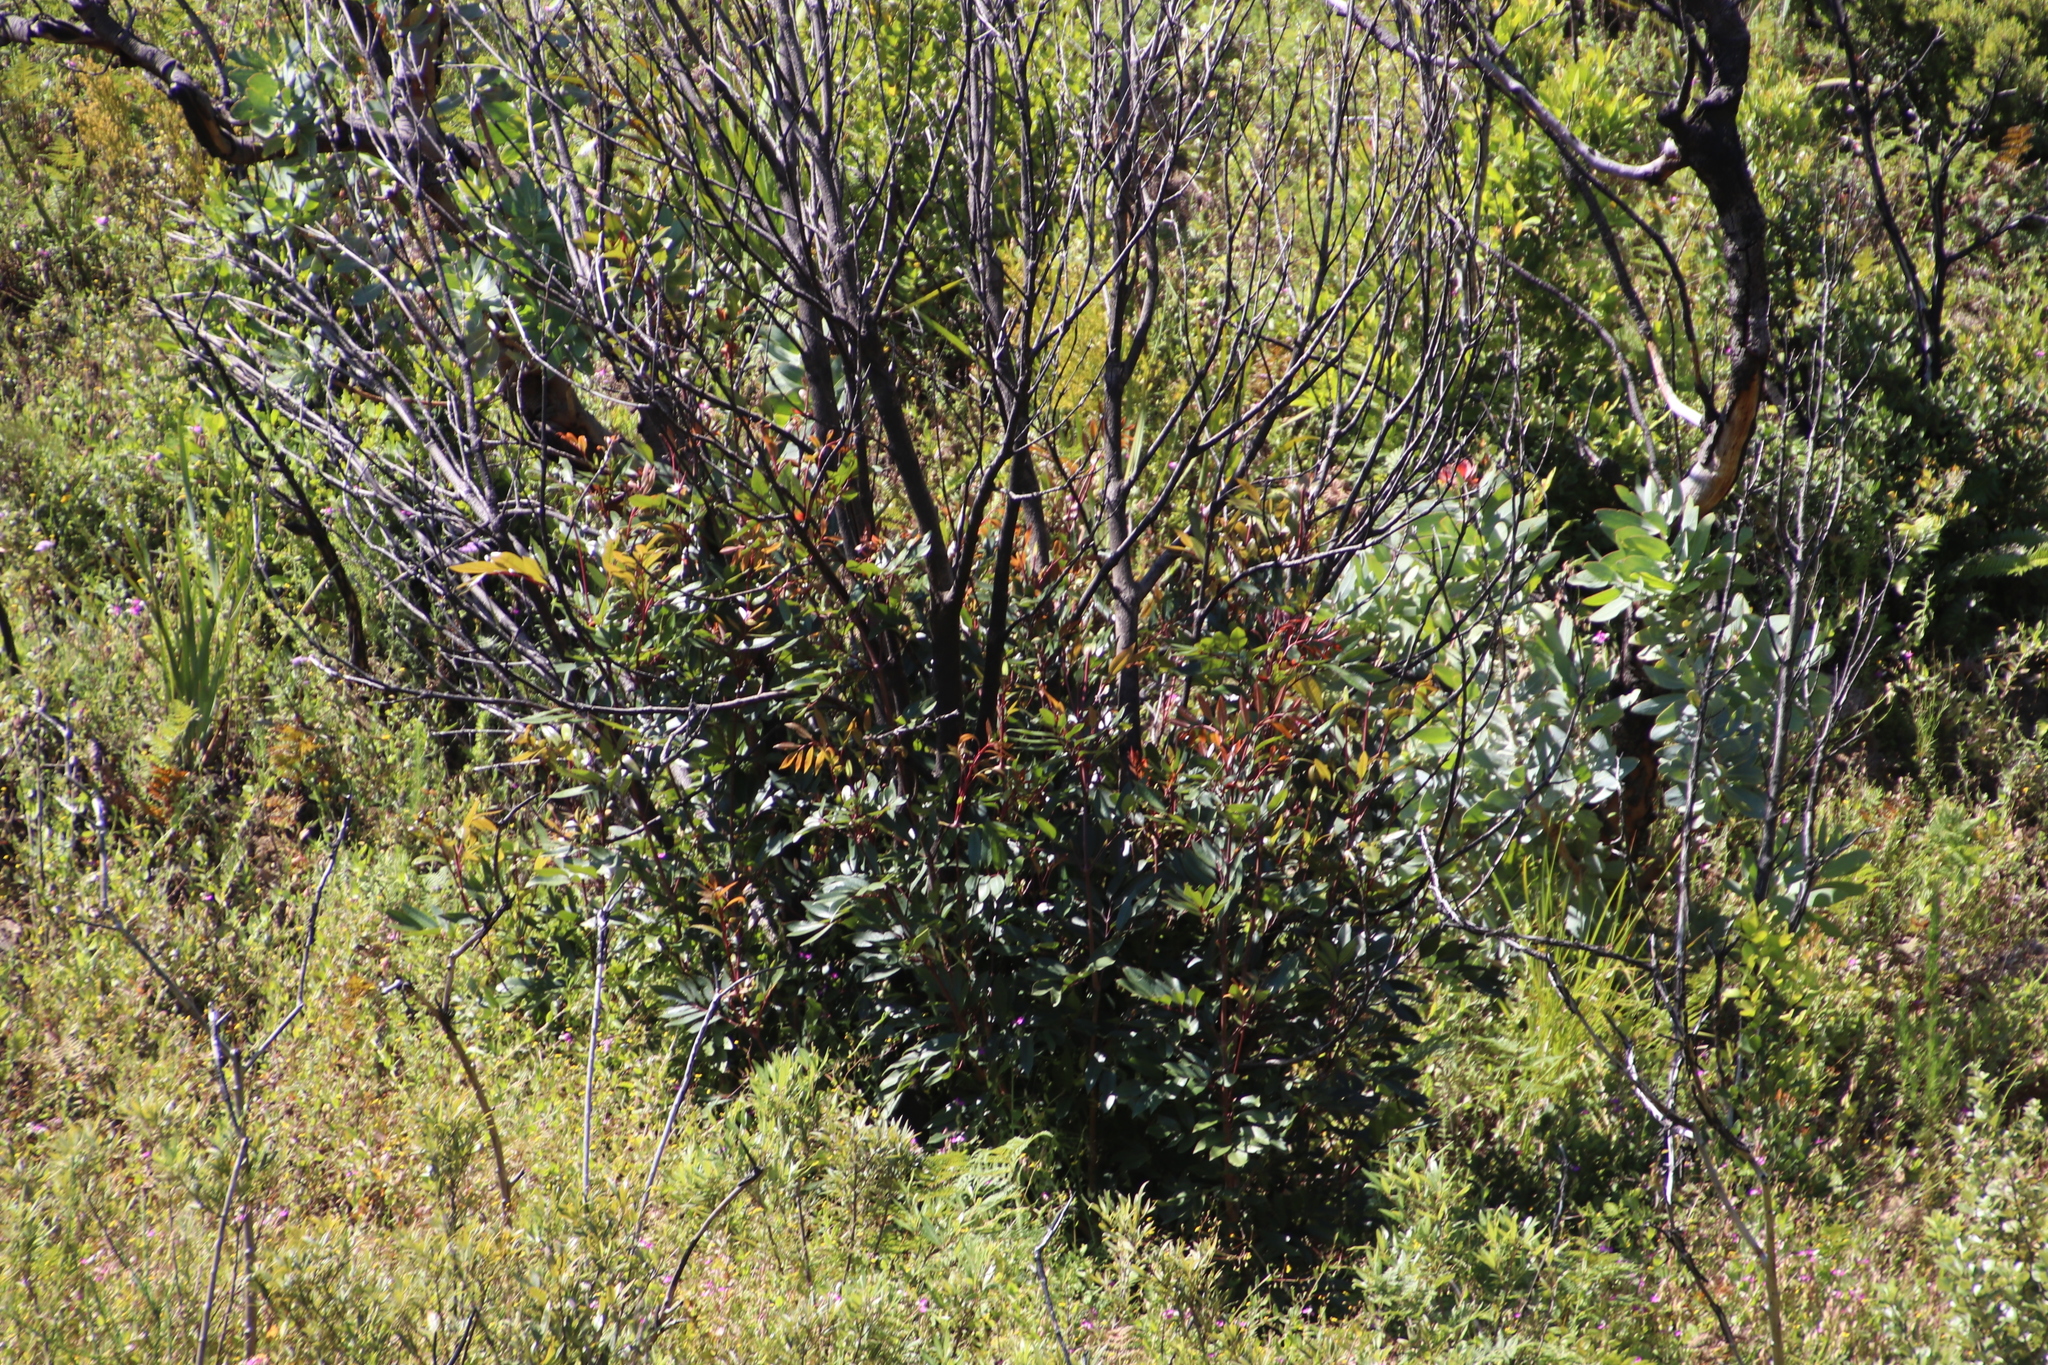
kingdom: Plantae
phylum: Tracheophyta
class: Magnoliopsida
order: Oxalidales
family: Cunoniaceae
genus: Cunonia
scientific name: Cunonia capensis
